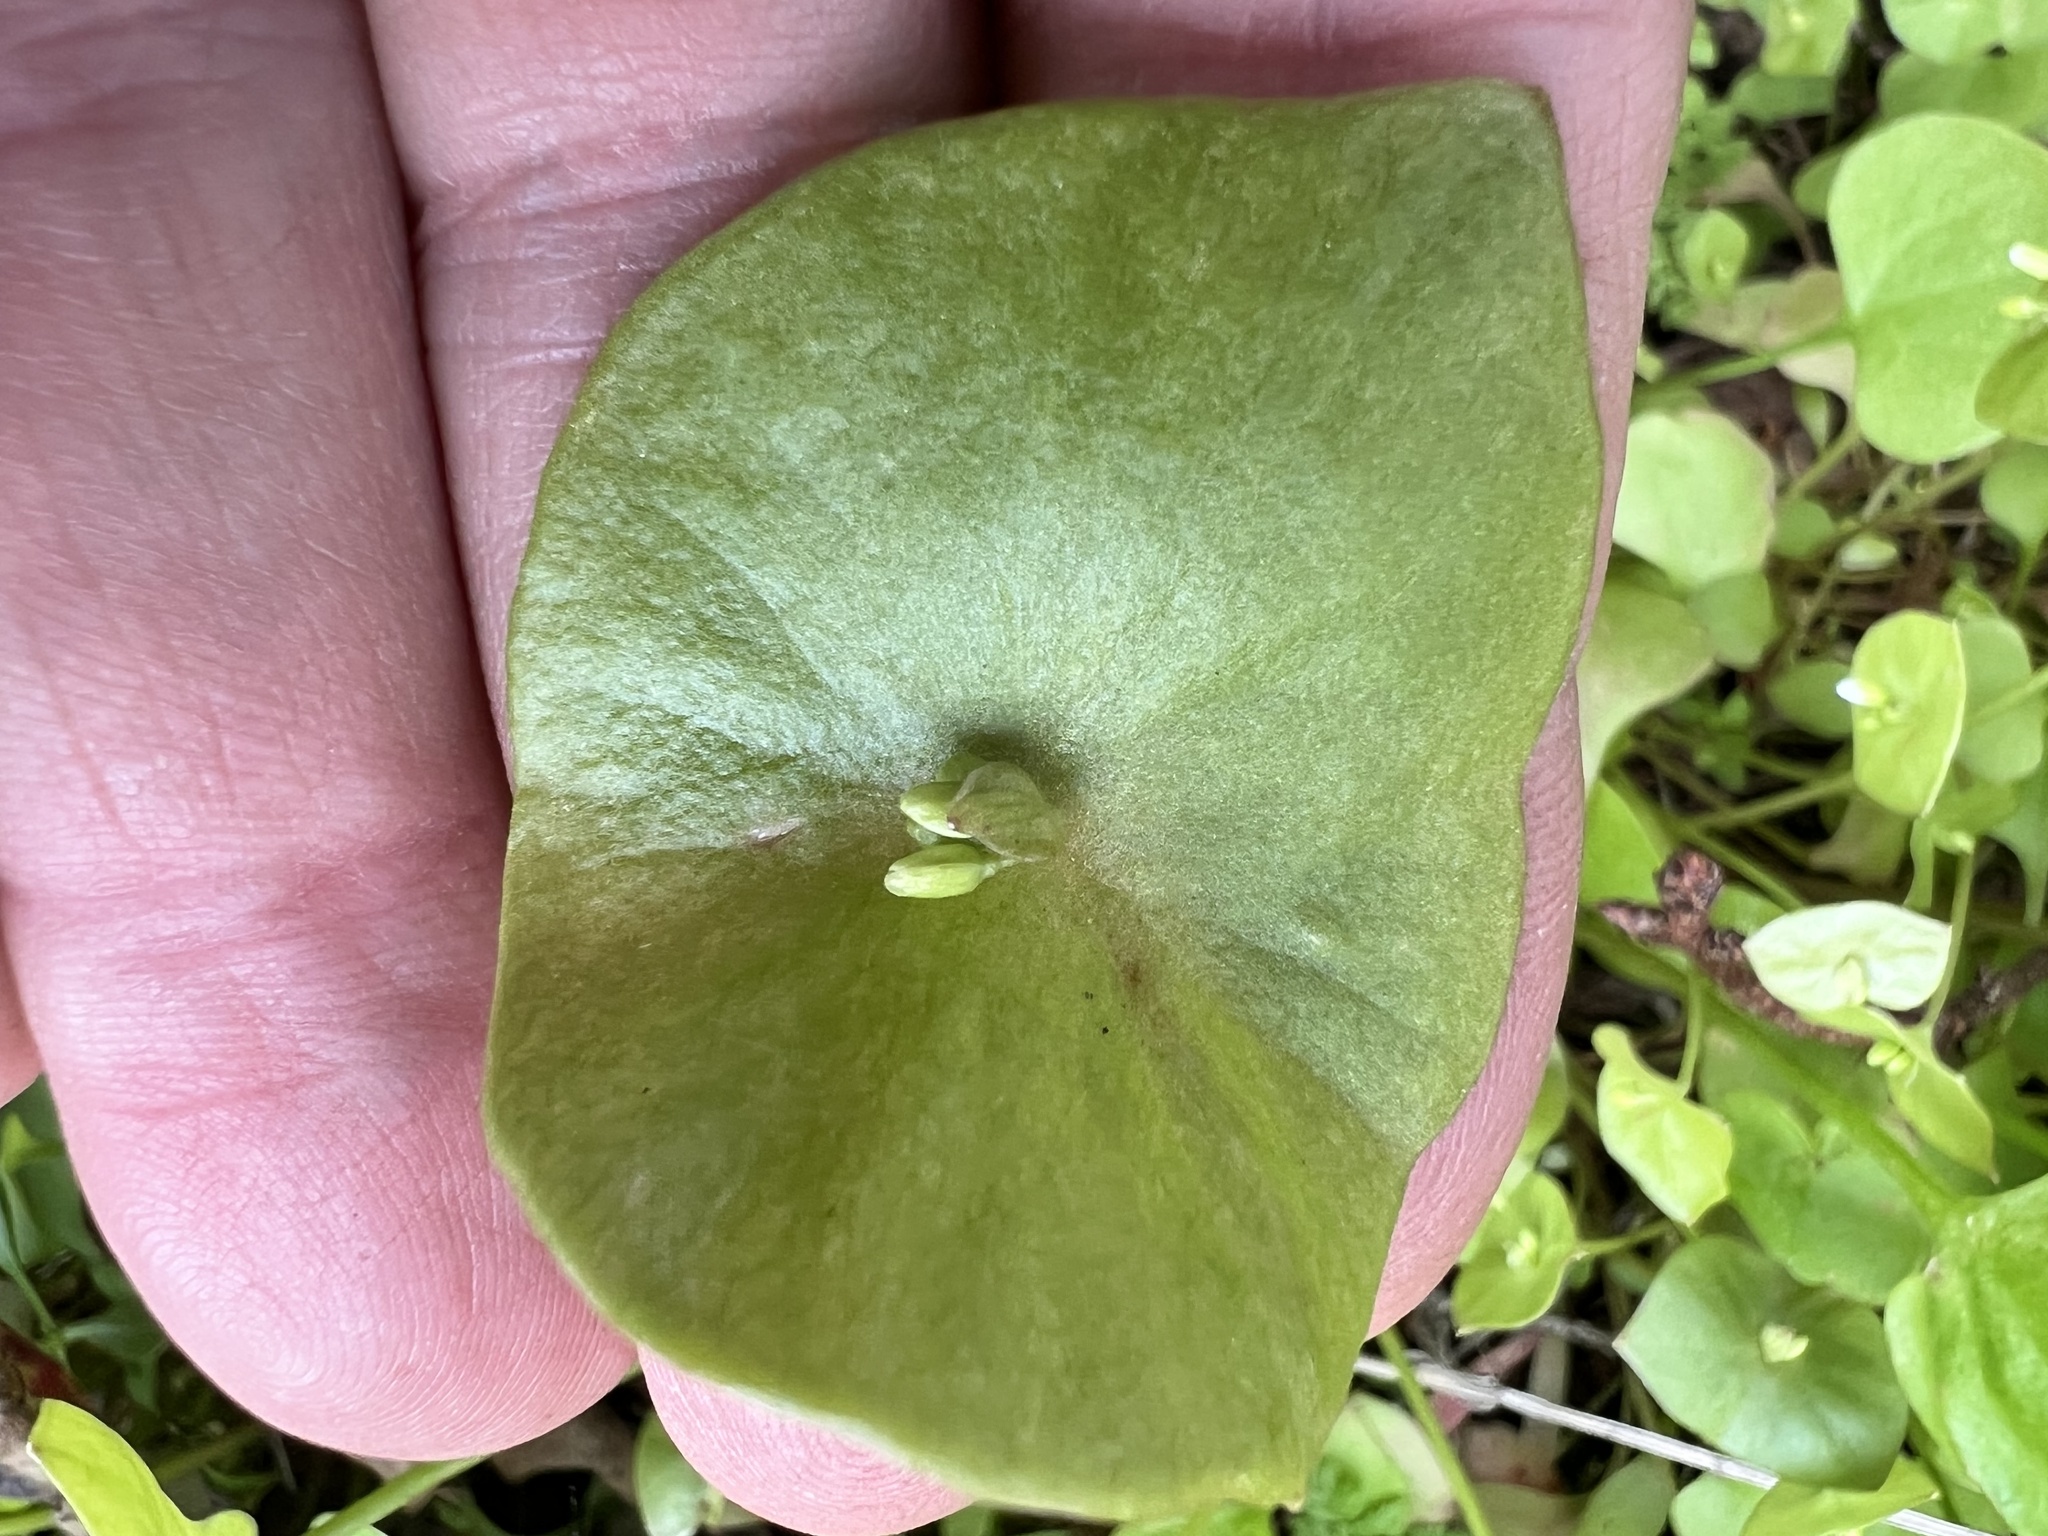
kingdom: Plantae
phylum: Tracheophyta
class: Magnoliopsida
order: Caryophyllales
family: Montiaceae
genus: Claytonia
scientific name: Claytonia perfoliata
